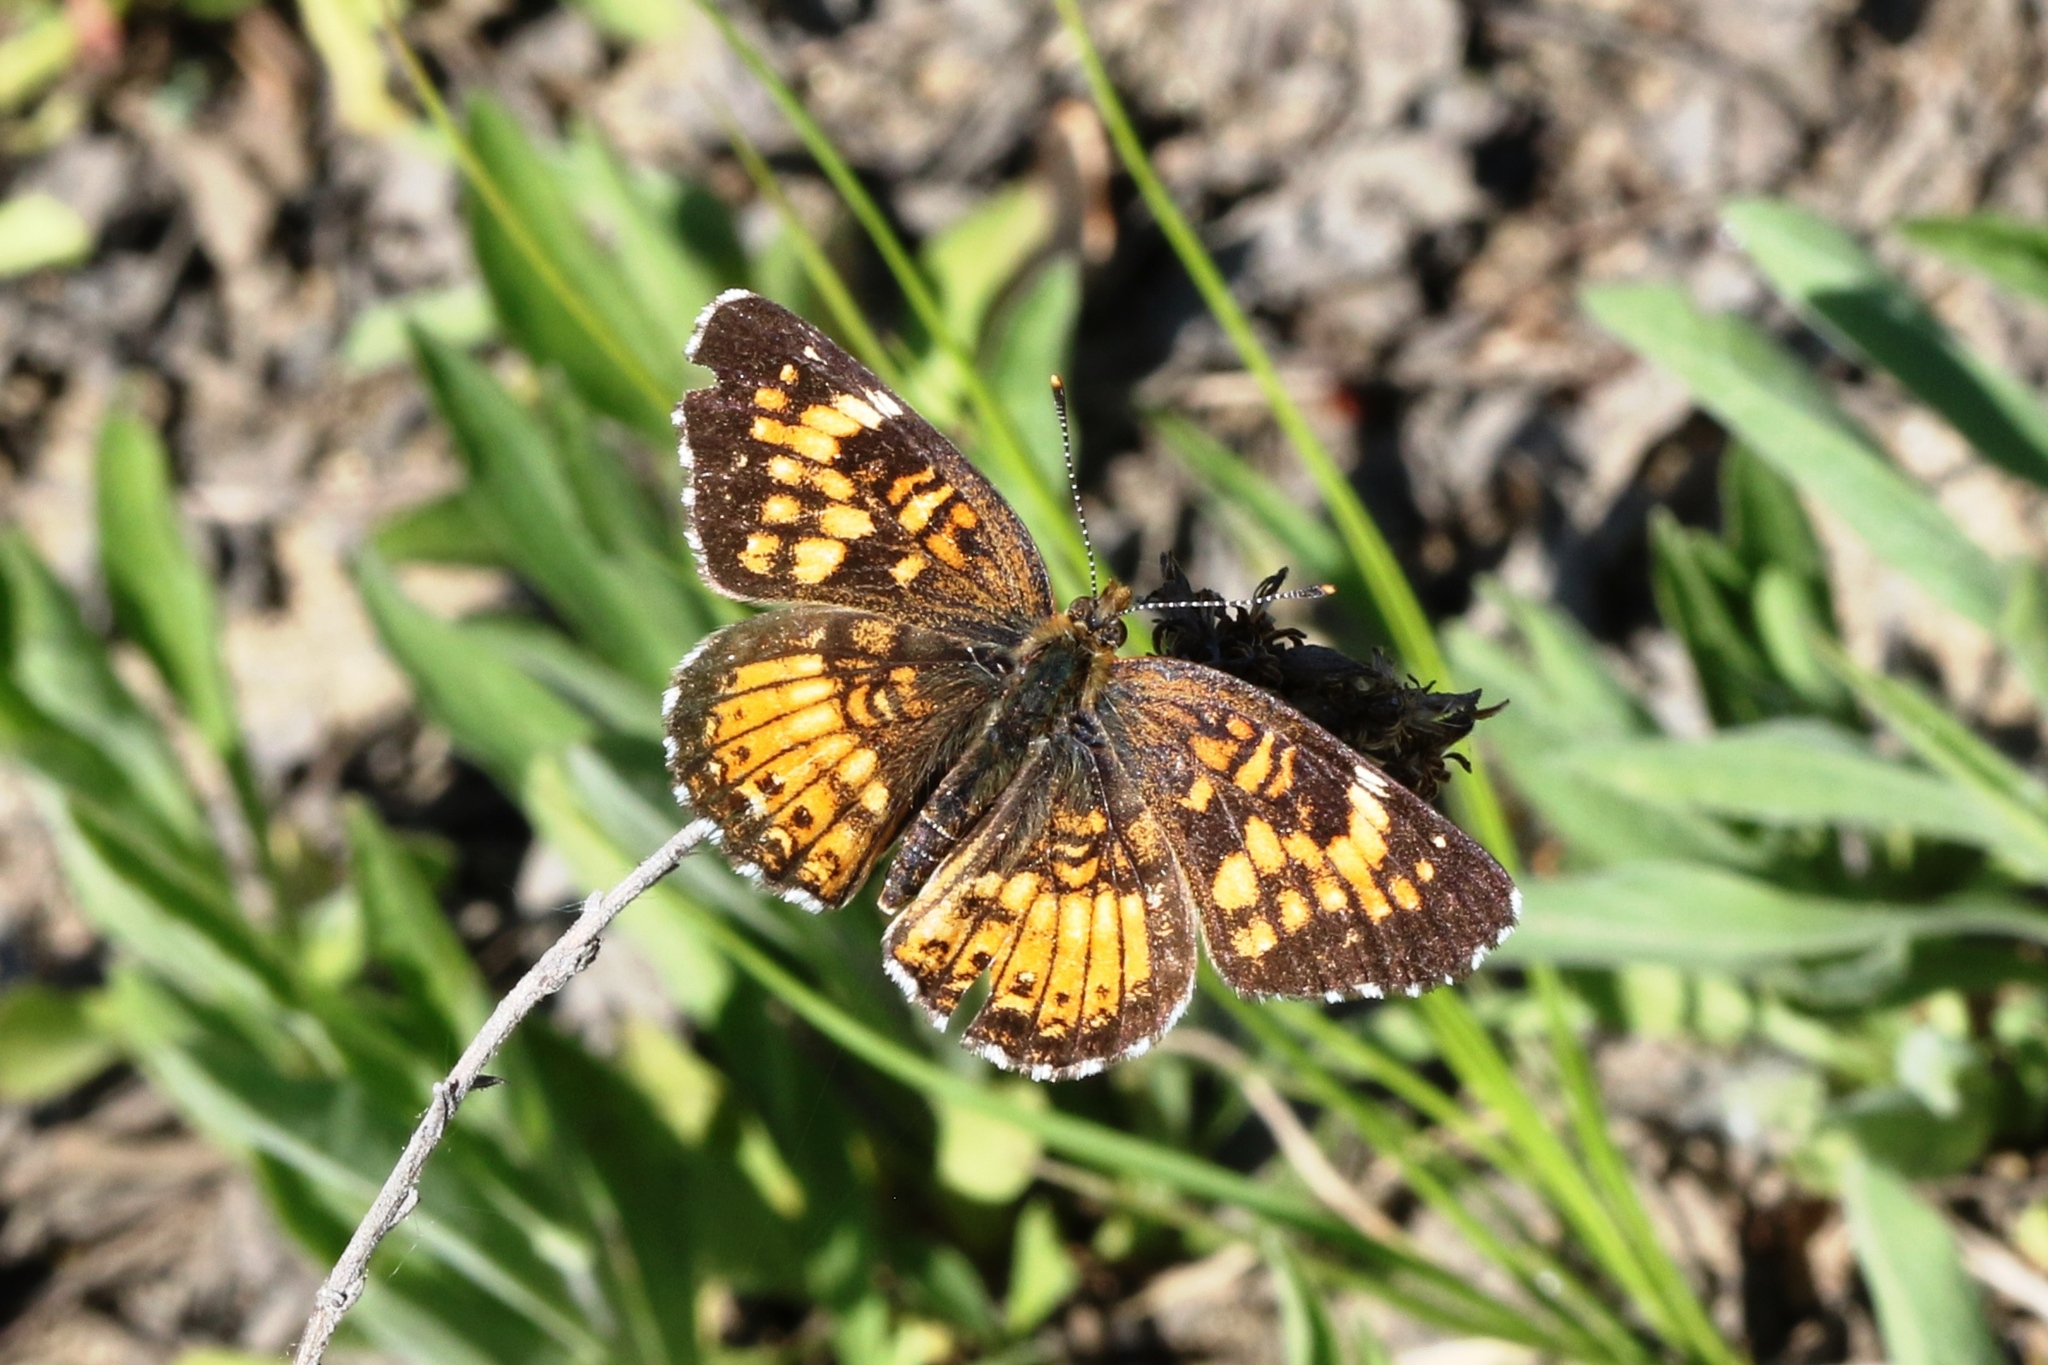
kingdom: Animalia
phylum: Arthropoda
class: Insecta
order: Lepidoptera
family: Nymphalidae
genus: Chlosyne
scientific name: Chlosyne harrisii
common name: Harris's checkerspot
